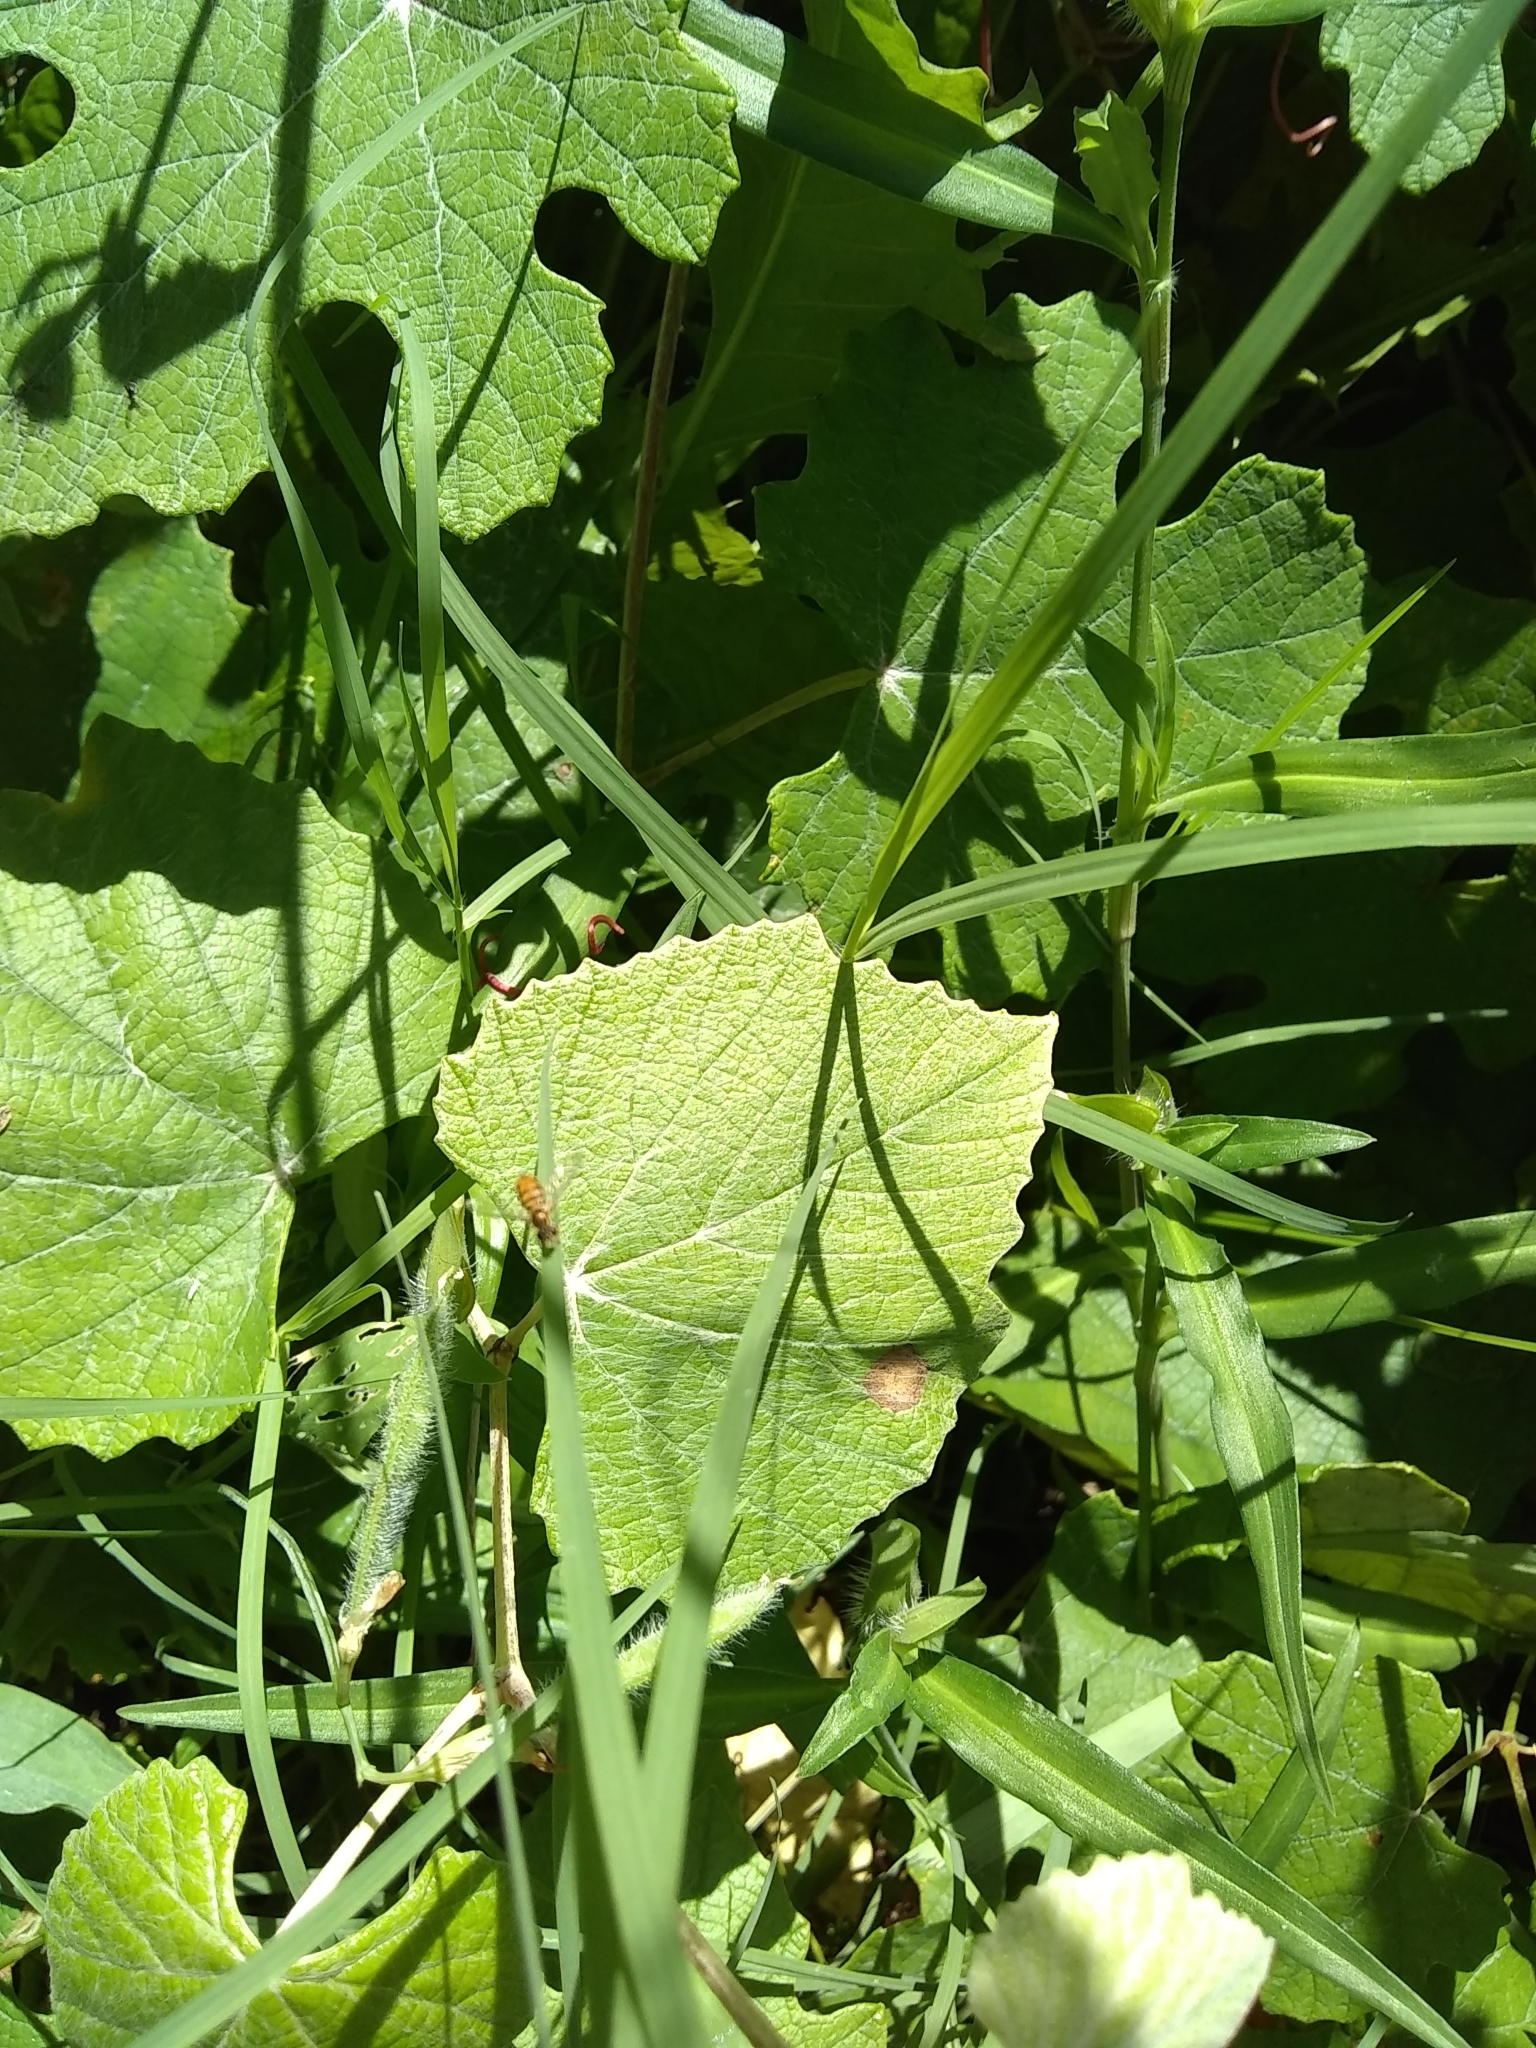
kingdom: Animalia
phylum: Arthropoda
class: Insecta
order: Diptera
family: Syrphidae
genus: Toxomerus
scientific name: Toxomerus
